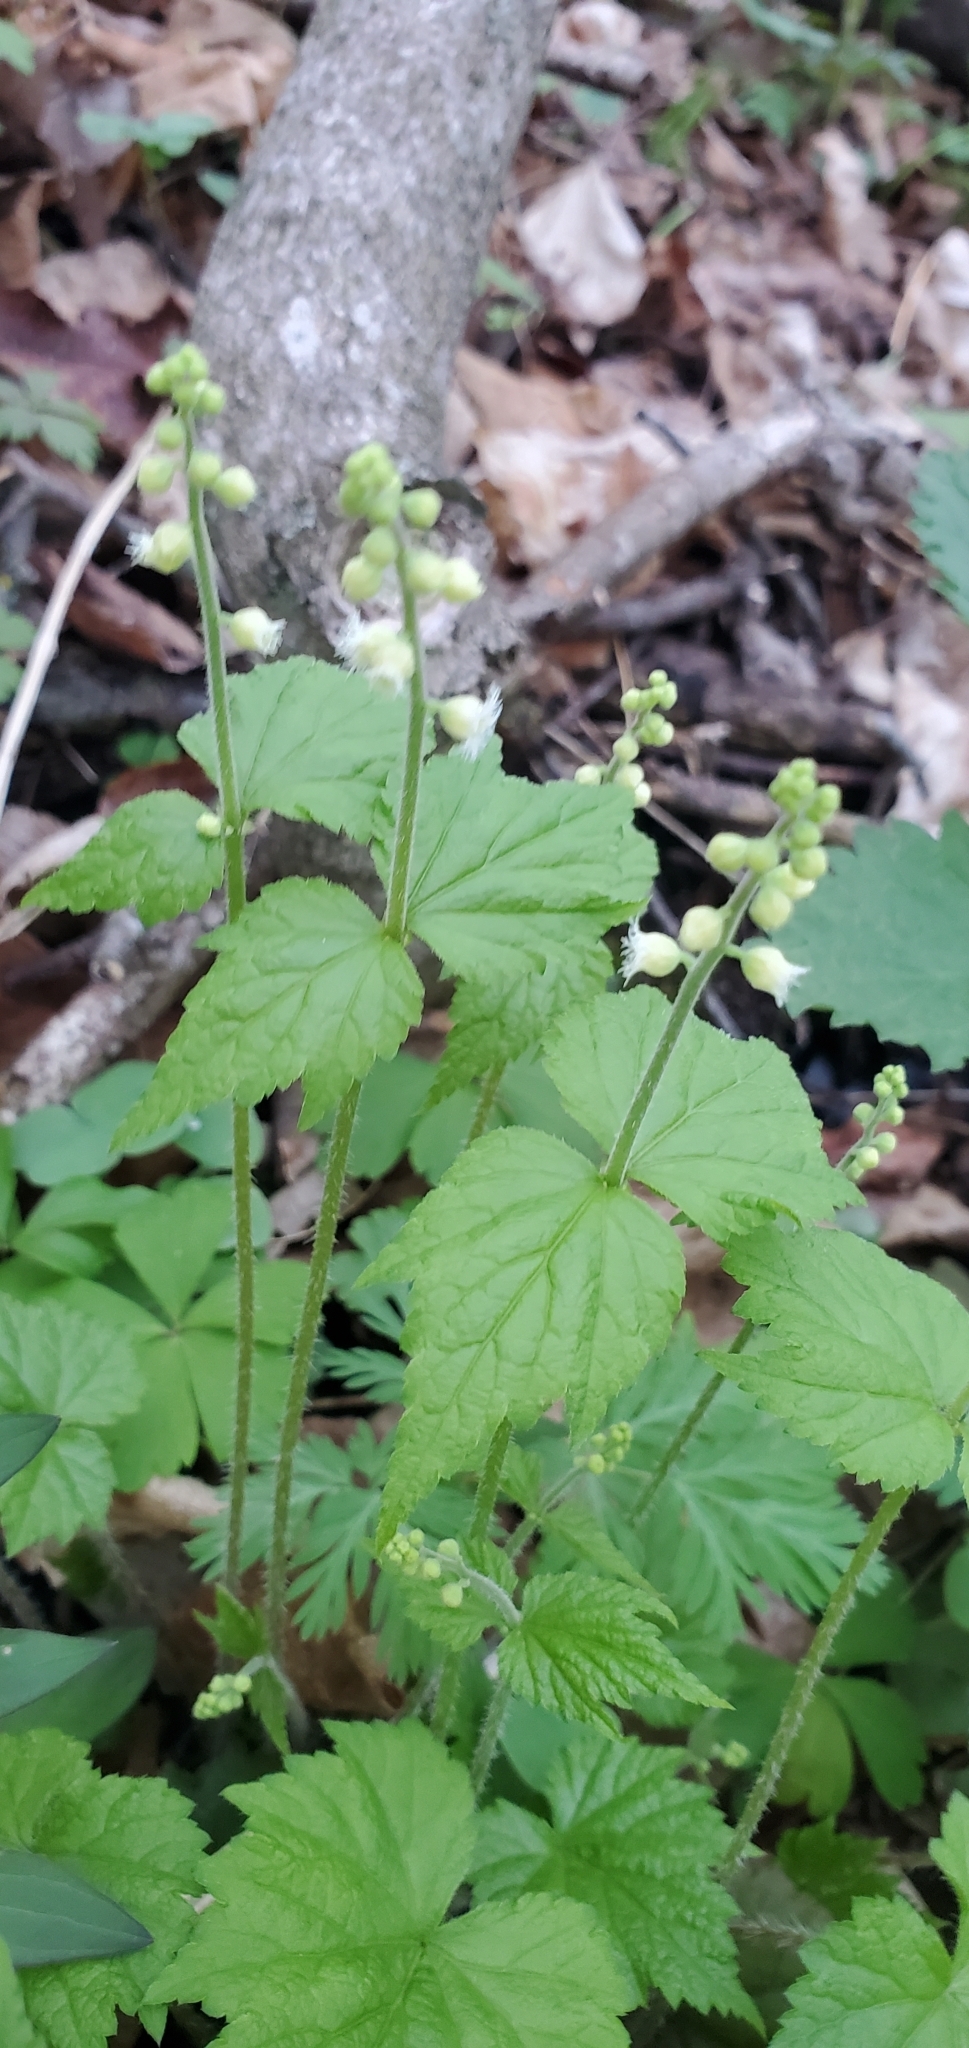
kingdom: Plantae
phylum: Tracheophyta
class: Magnoliopsida
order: Saxifragales
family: Saxifragaceae
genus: Mitella
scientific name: Mitella diphylla
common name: Coolwort
